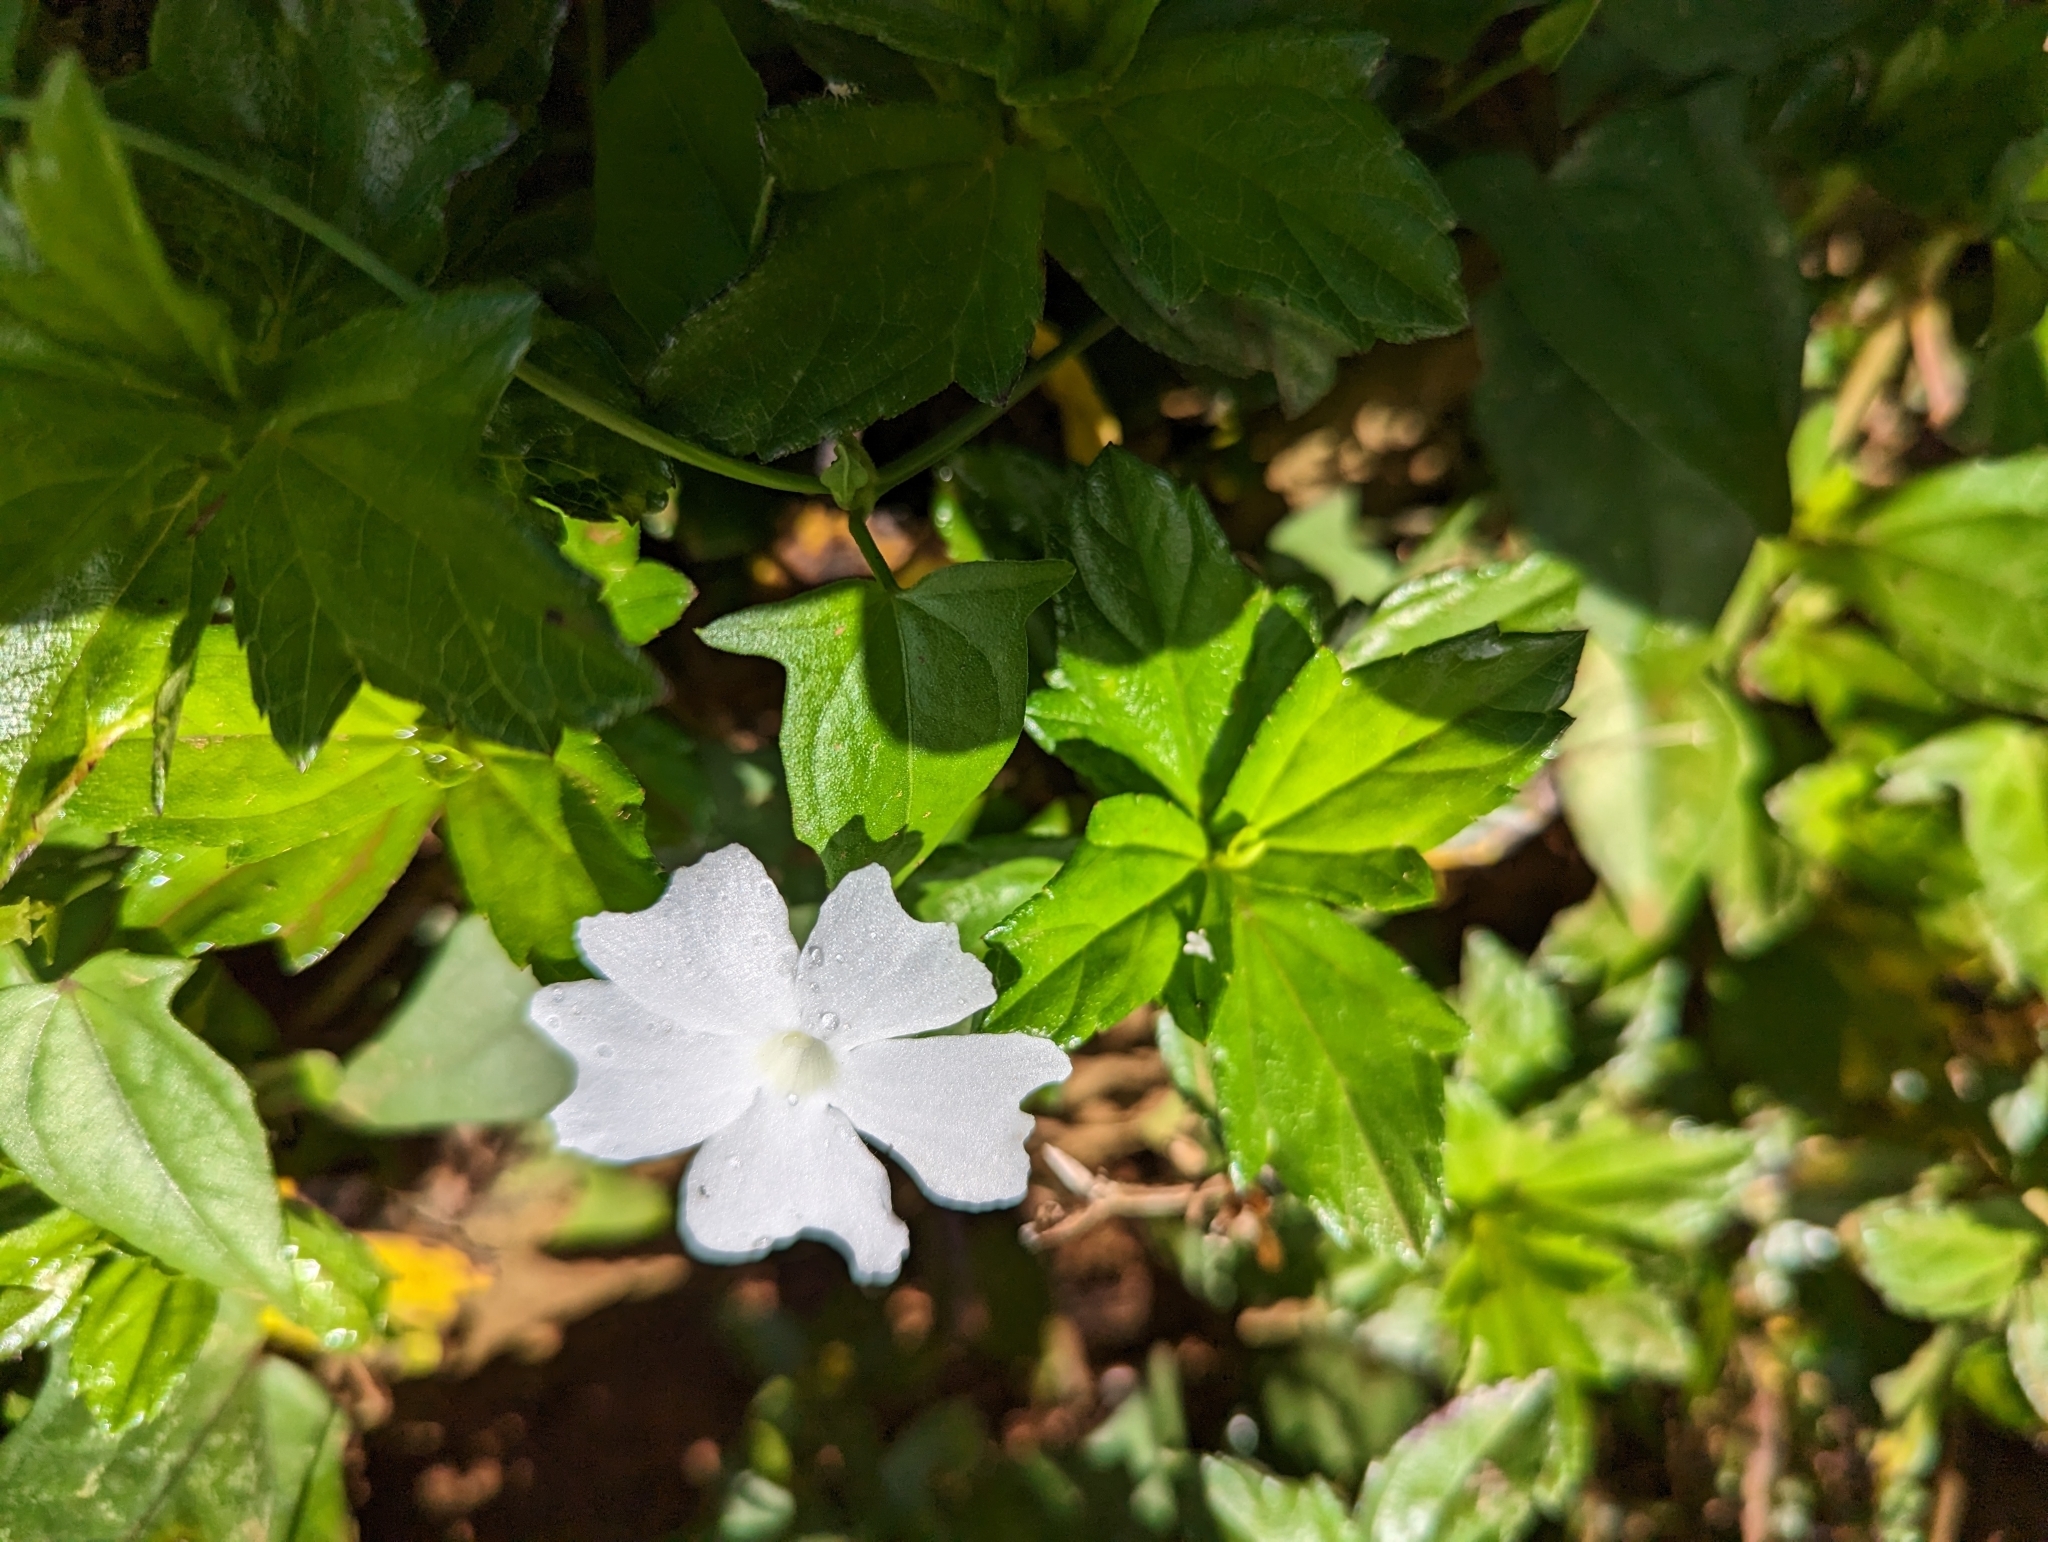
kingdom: Plantae
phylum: Tracheophyta
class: Magnoliopsida
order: Lamiales
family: Acanthaceae
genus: Thunbergia
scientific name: Thunbergia fragrans
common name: Whitelady
